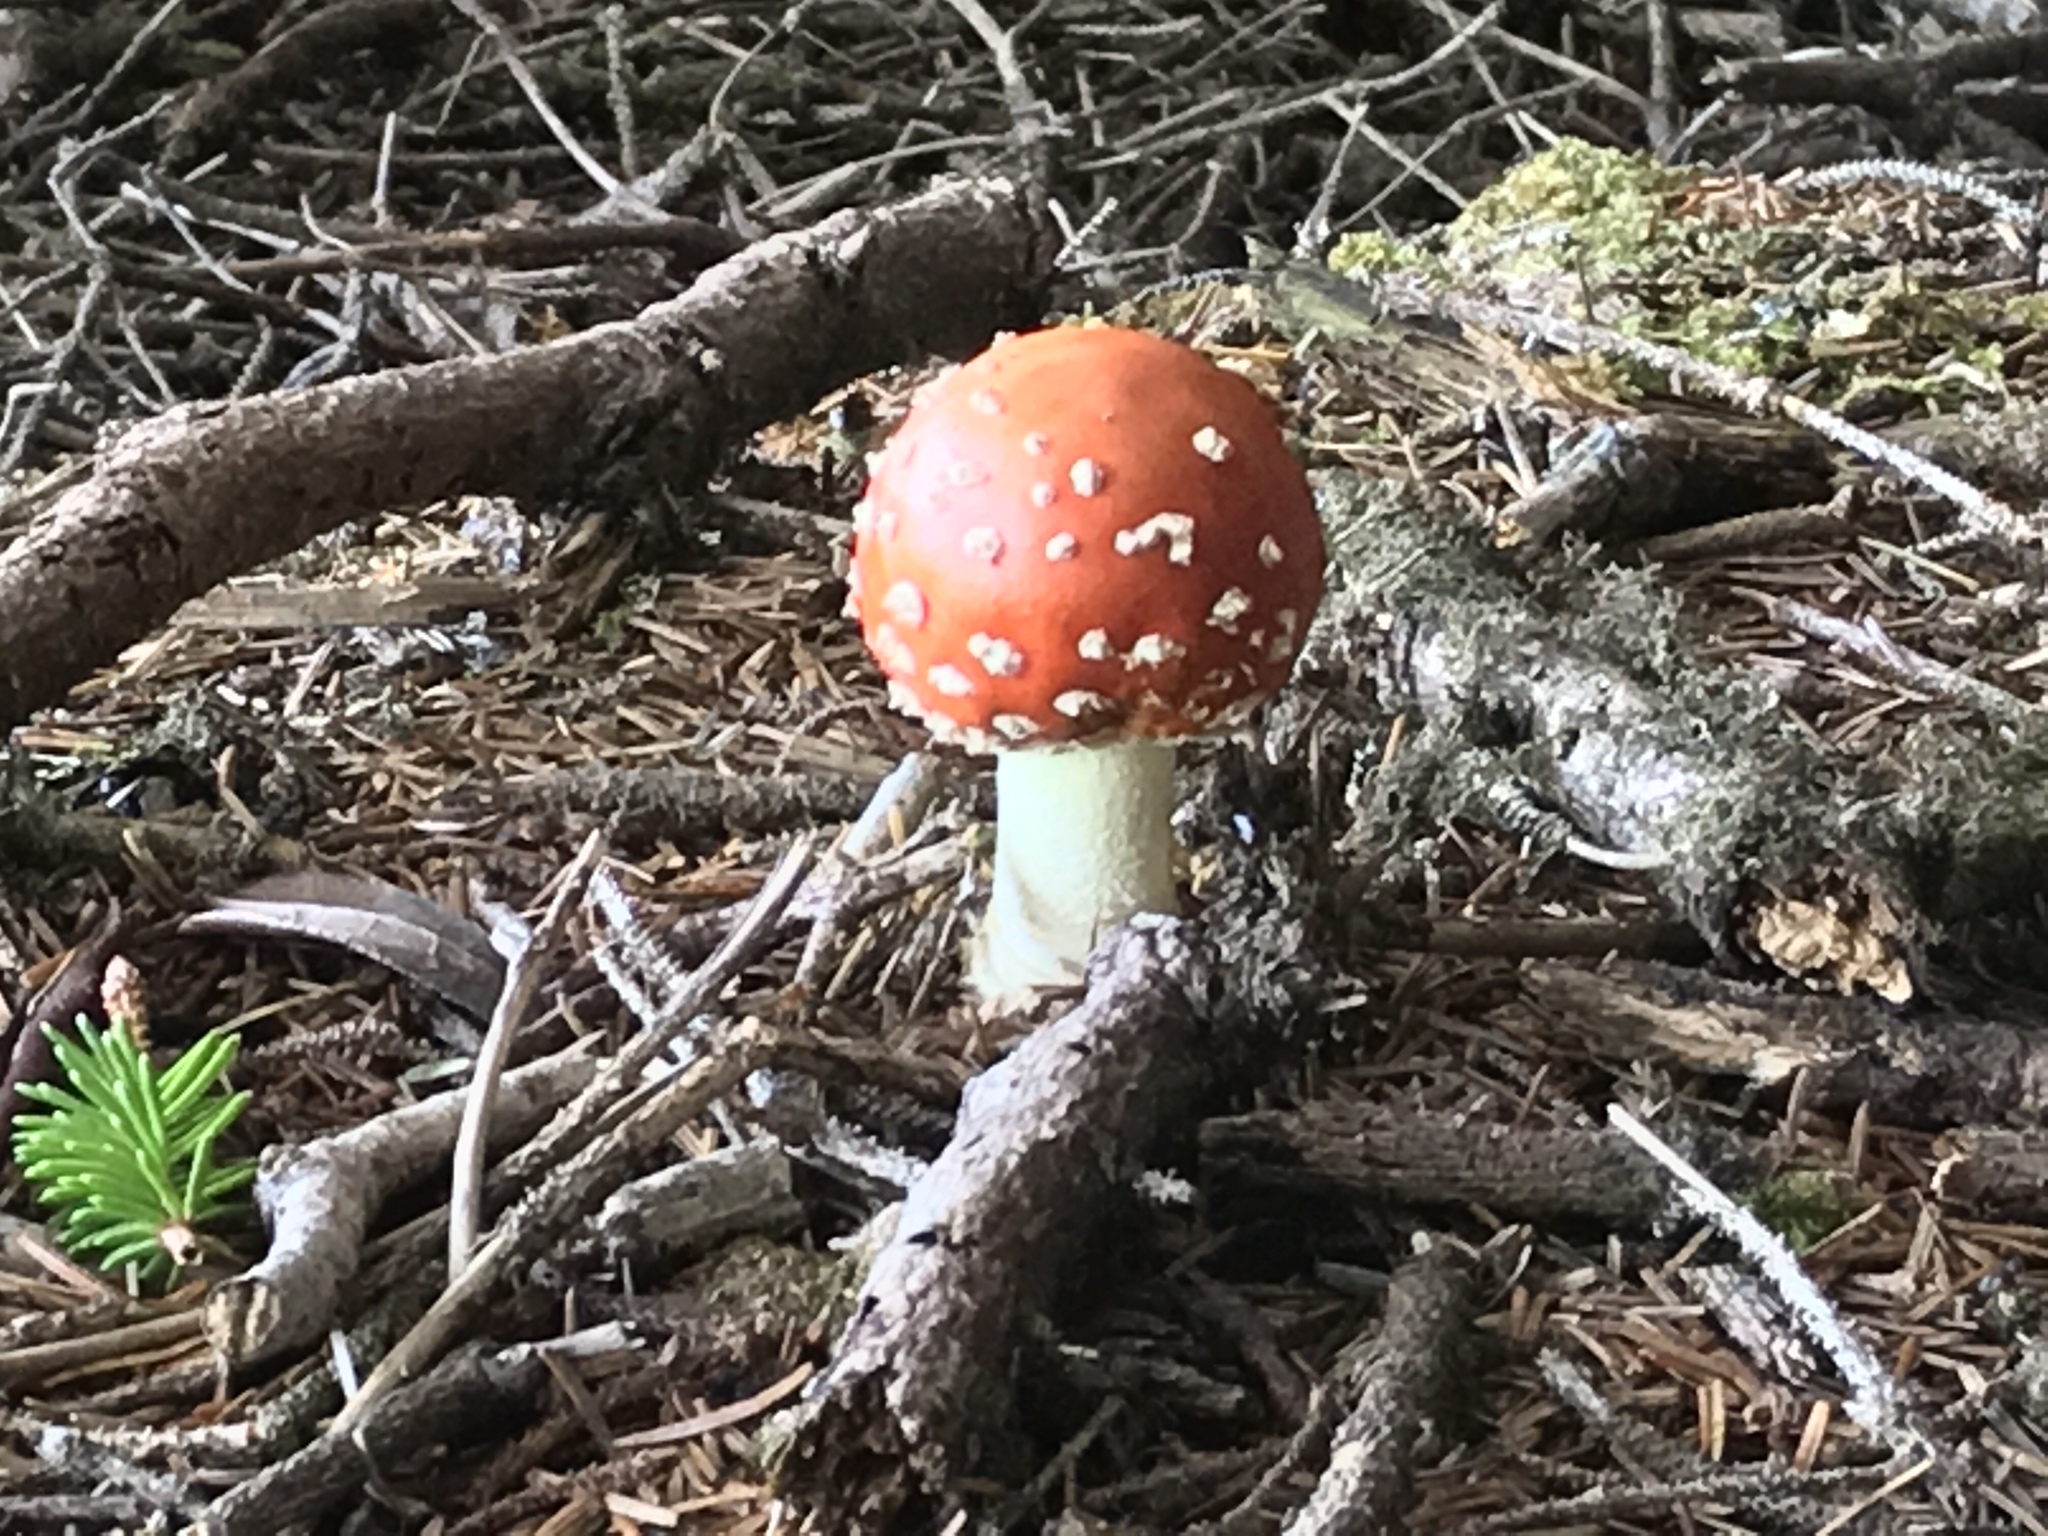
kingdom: Fungi
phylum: Basidiomycota
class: Agaricomycetes
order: Agaricales
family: Amanitaceae
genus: Amanita
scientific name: Amanita muscaria
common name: Fly agaric
